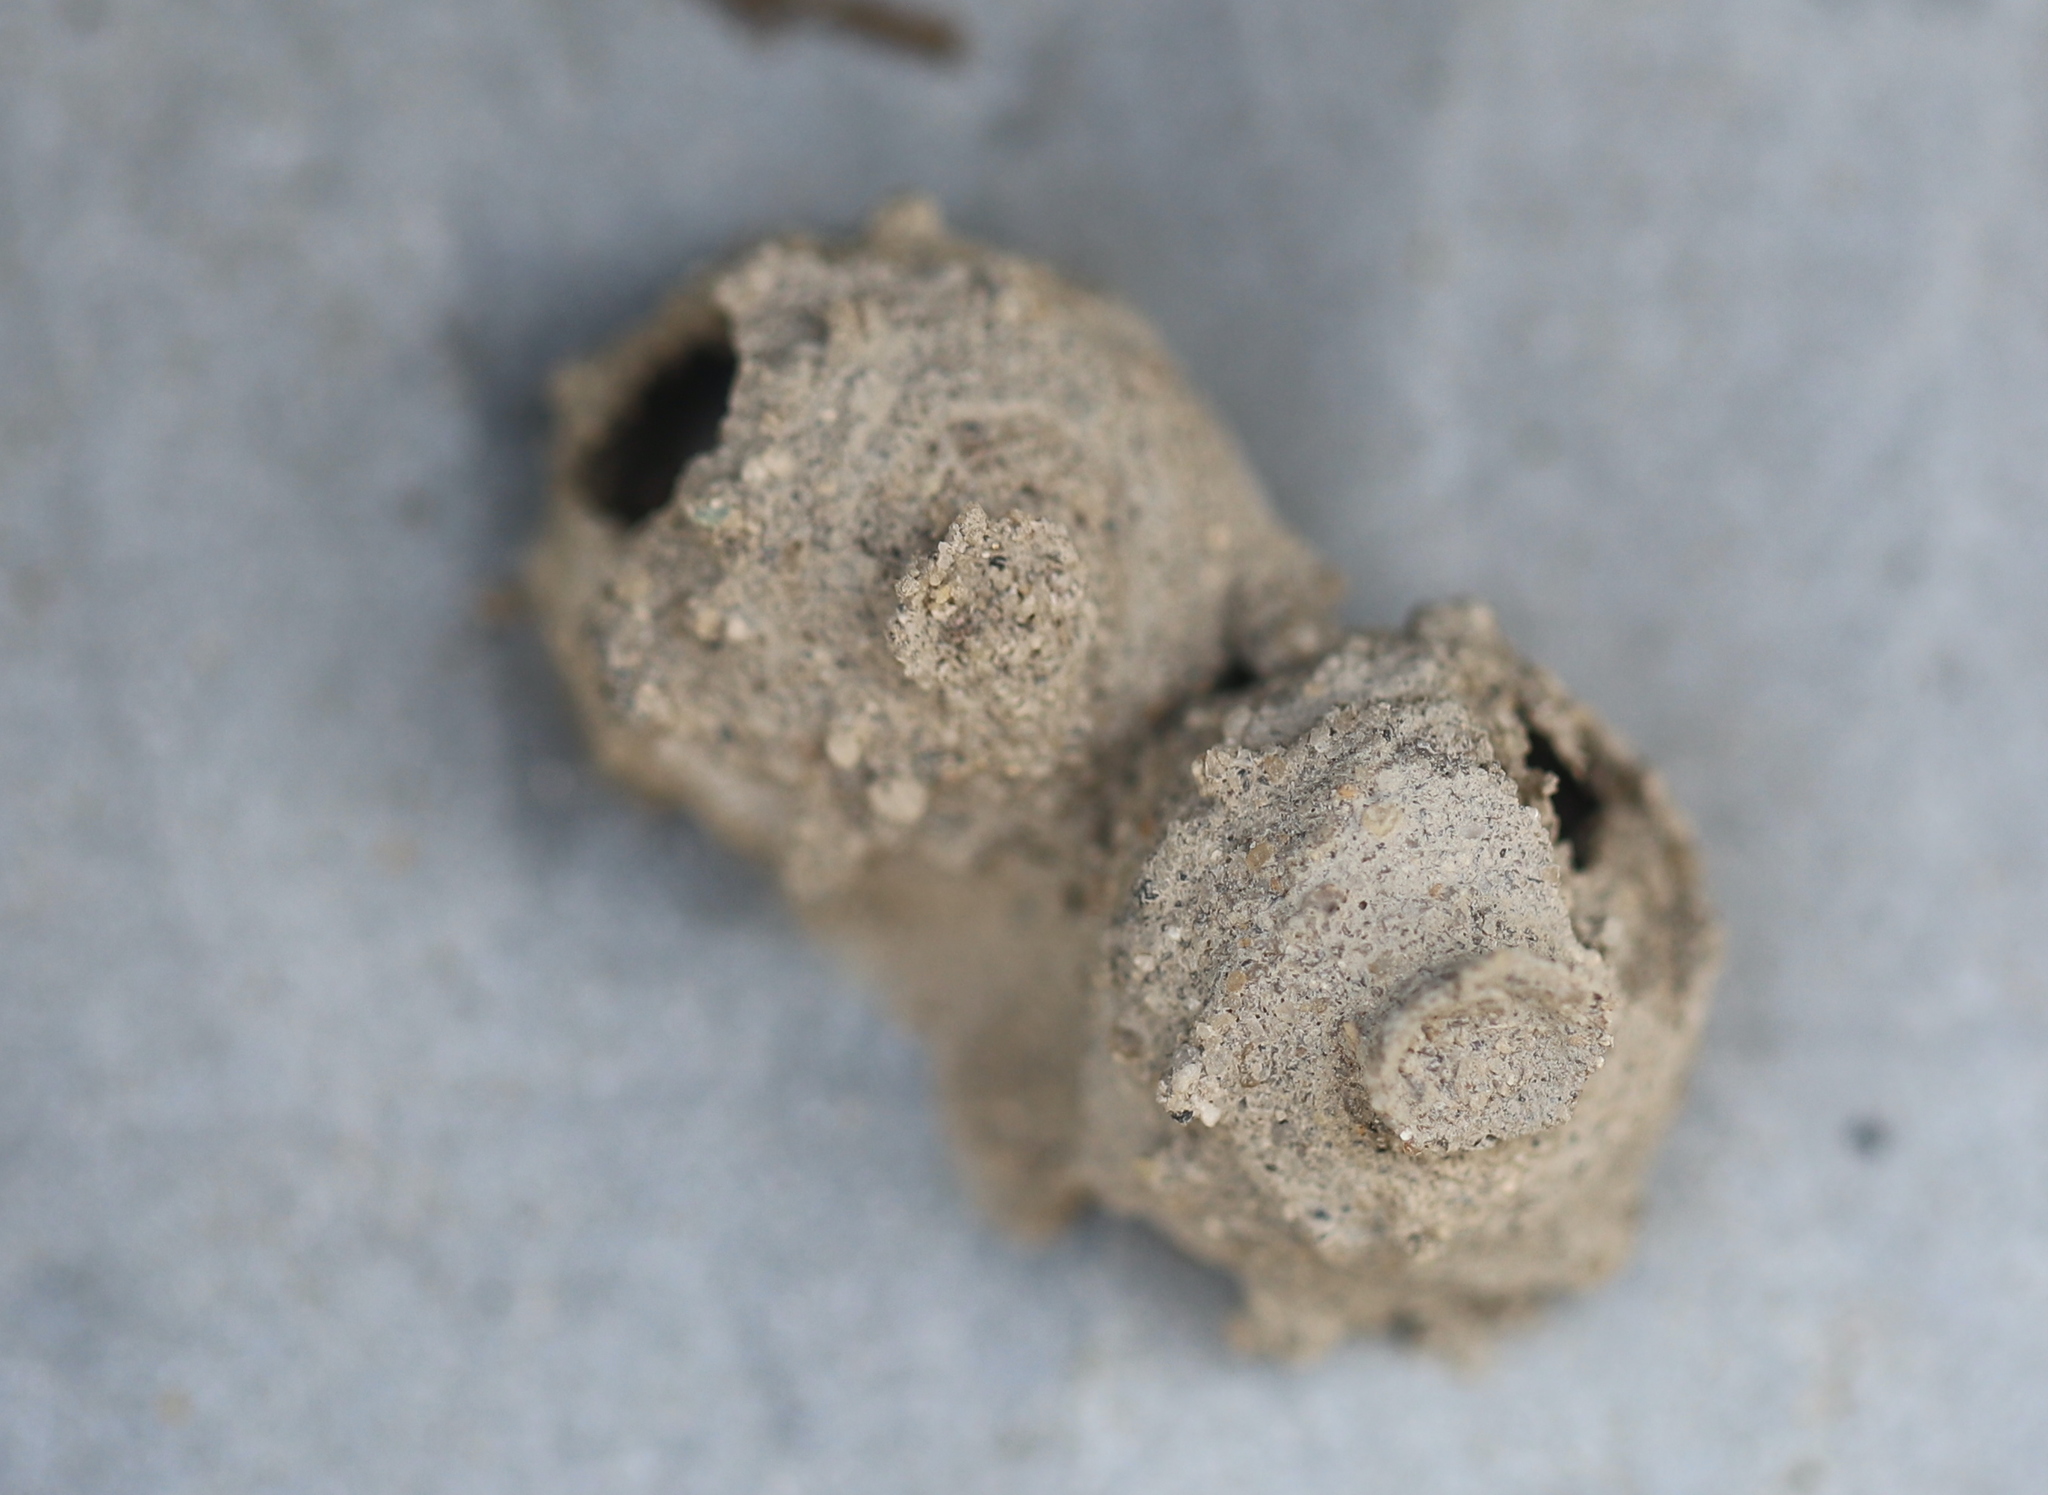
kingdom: Animalia
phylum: Arthropoda
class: Insecta
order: Hymenoptera
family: Vespidae
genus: Eumenes
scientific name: Eumenes
